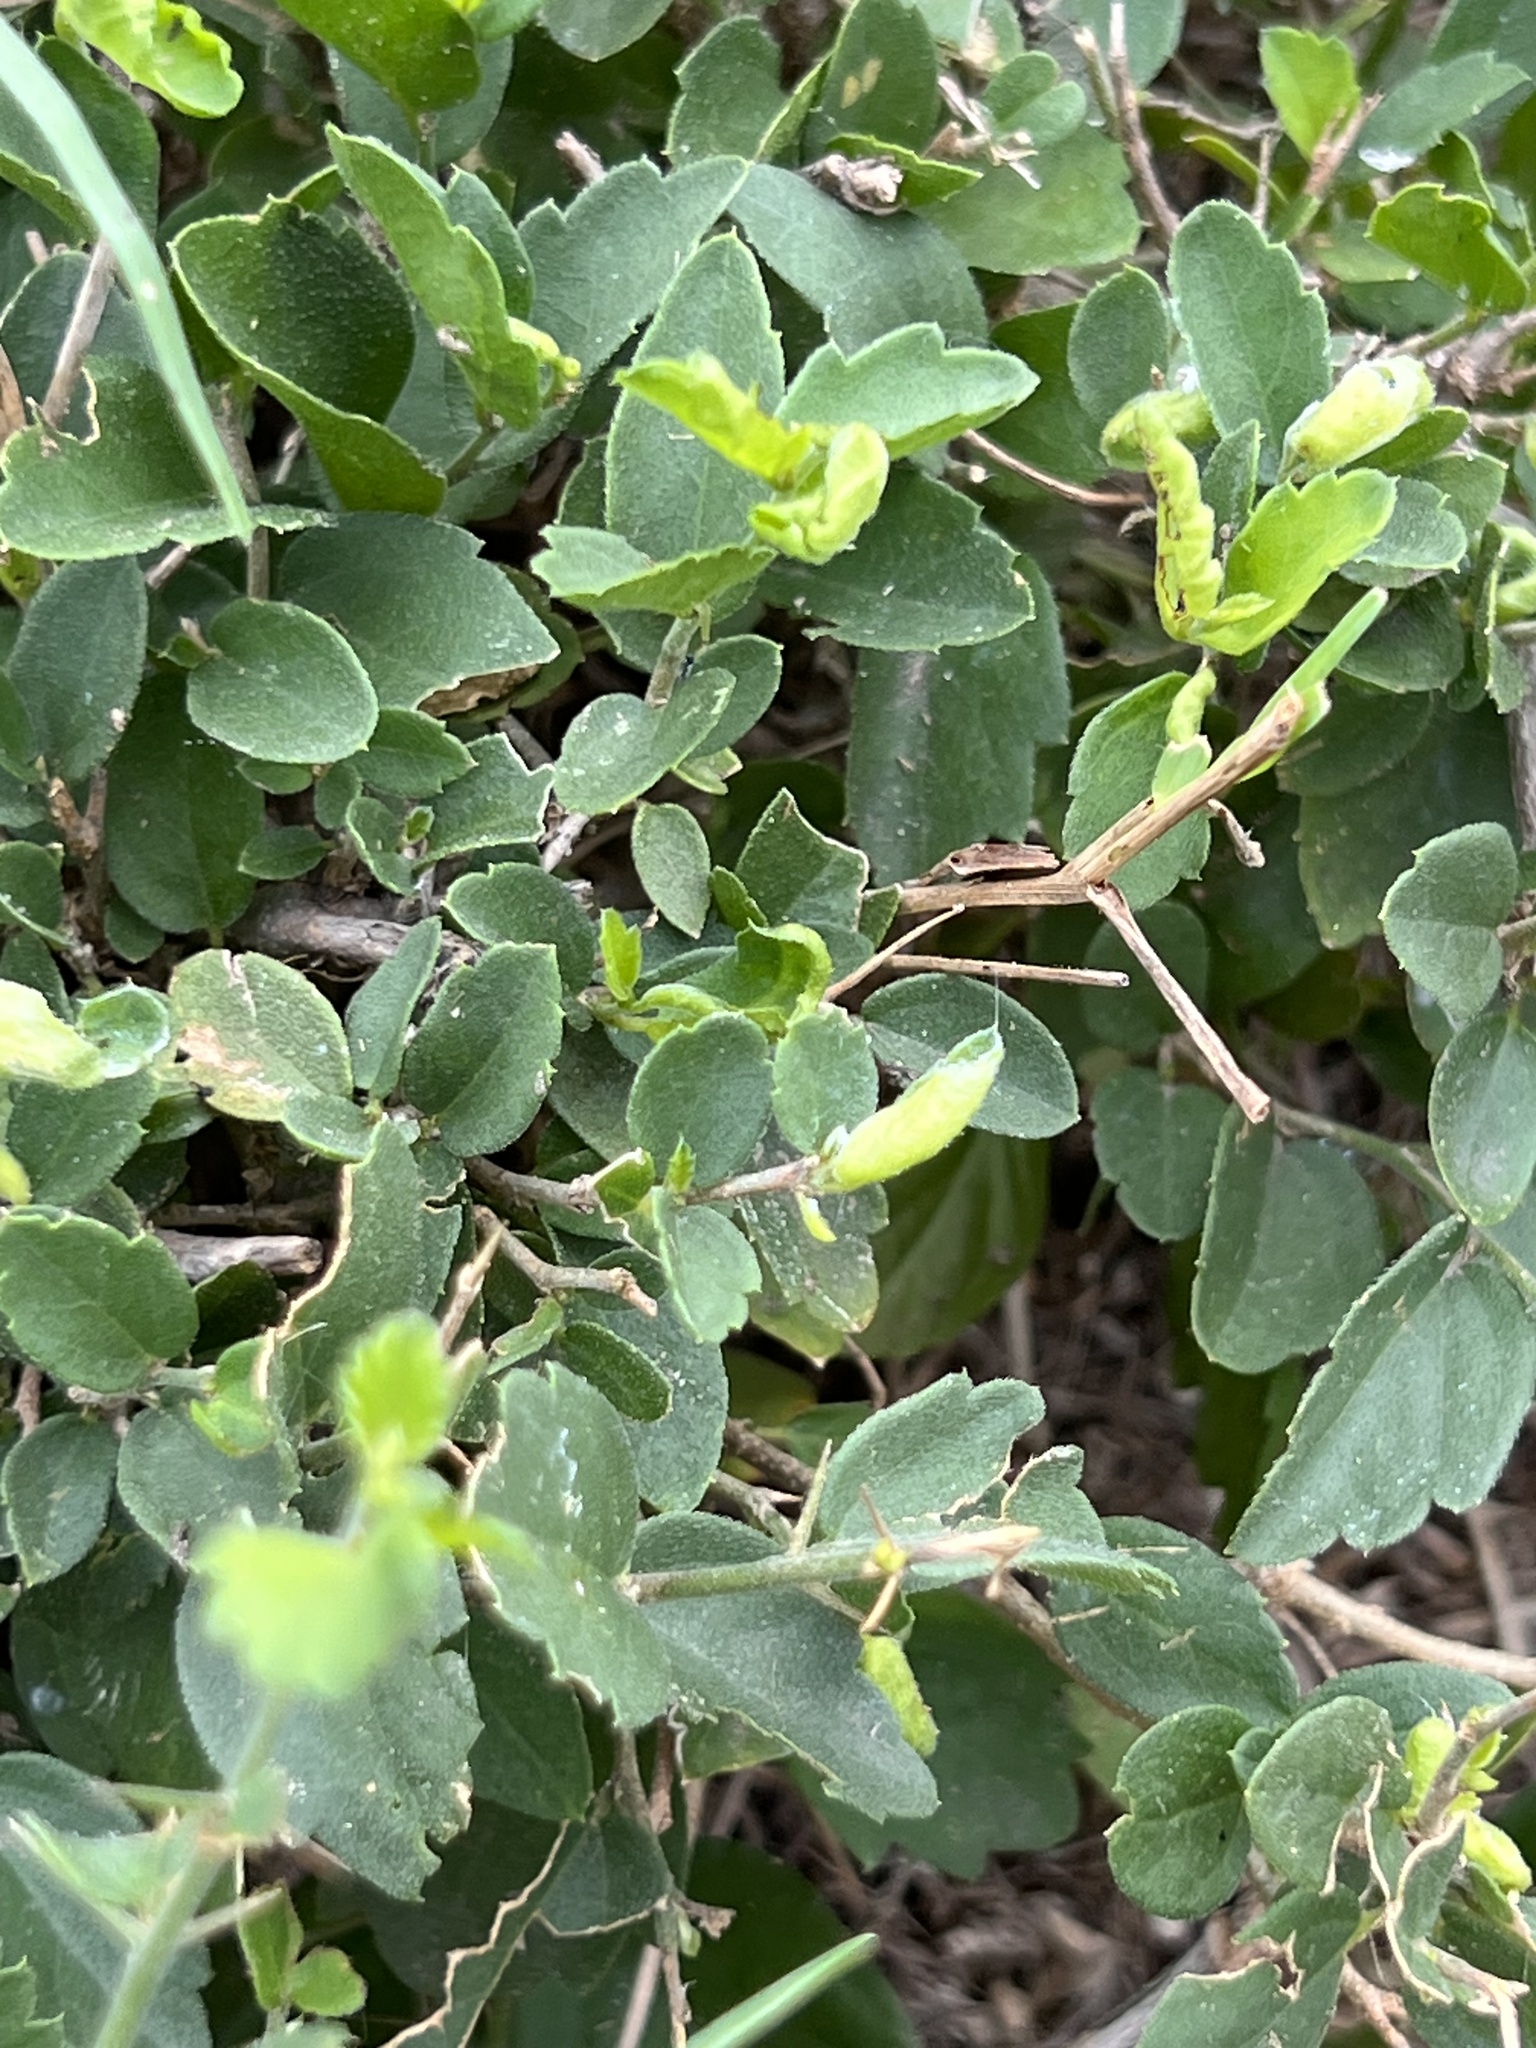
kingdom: Plantae
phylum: Tracheophyta
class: Magnoliopsida
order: Rosales
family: Cannabaceae
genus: Celtis
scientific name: Celtis pallida
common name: Desert hackberry
